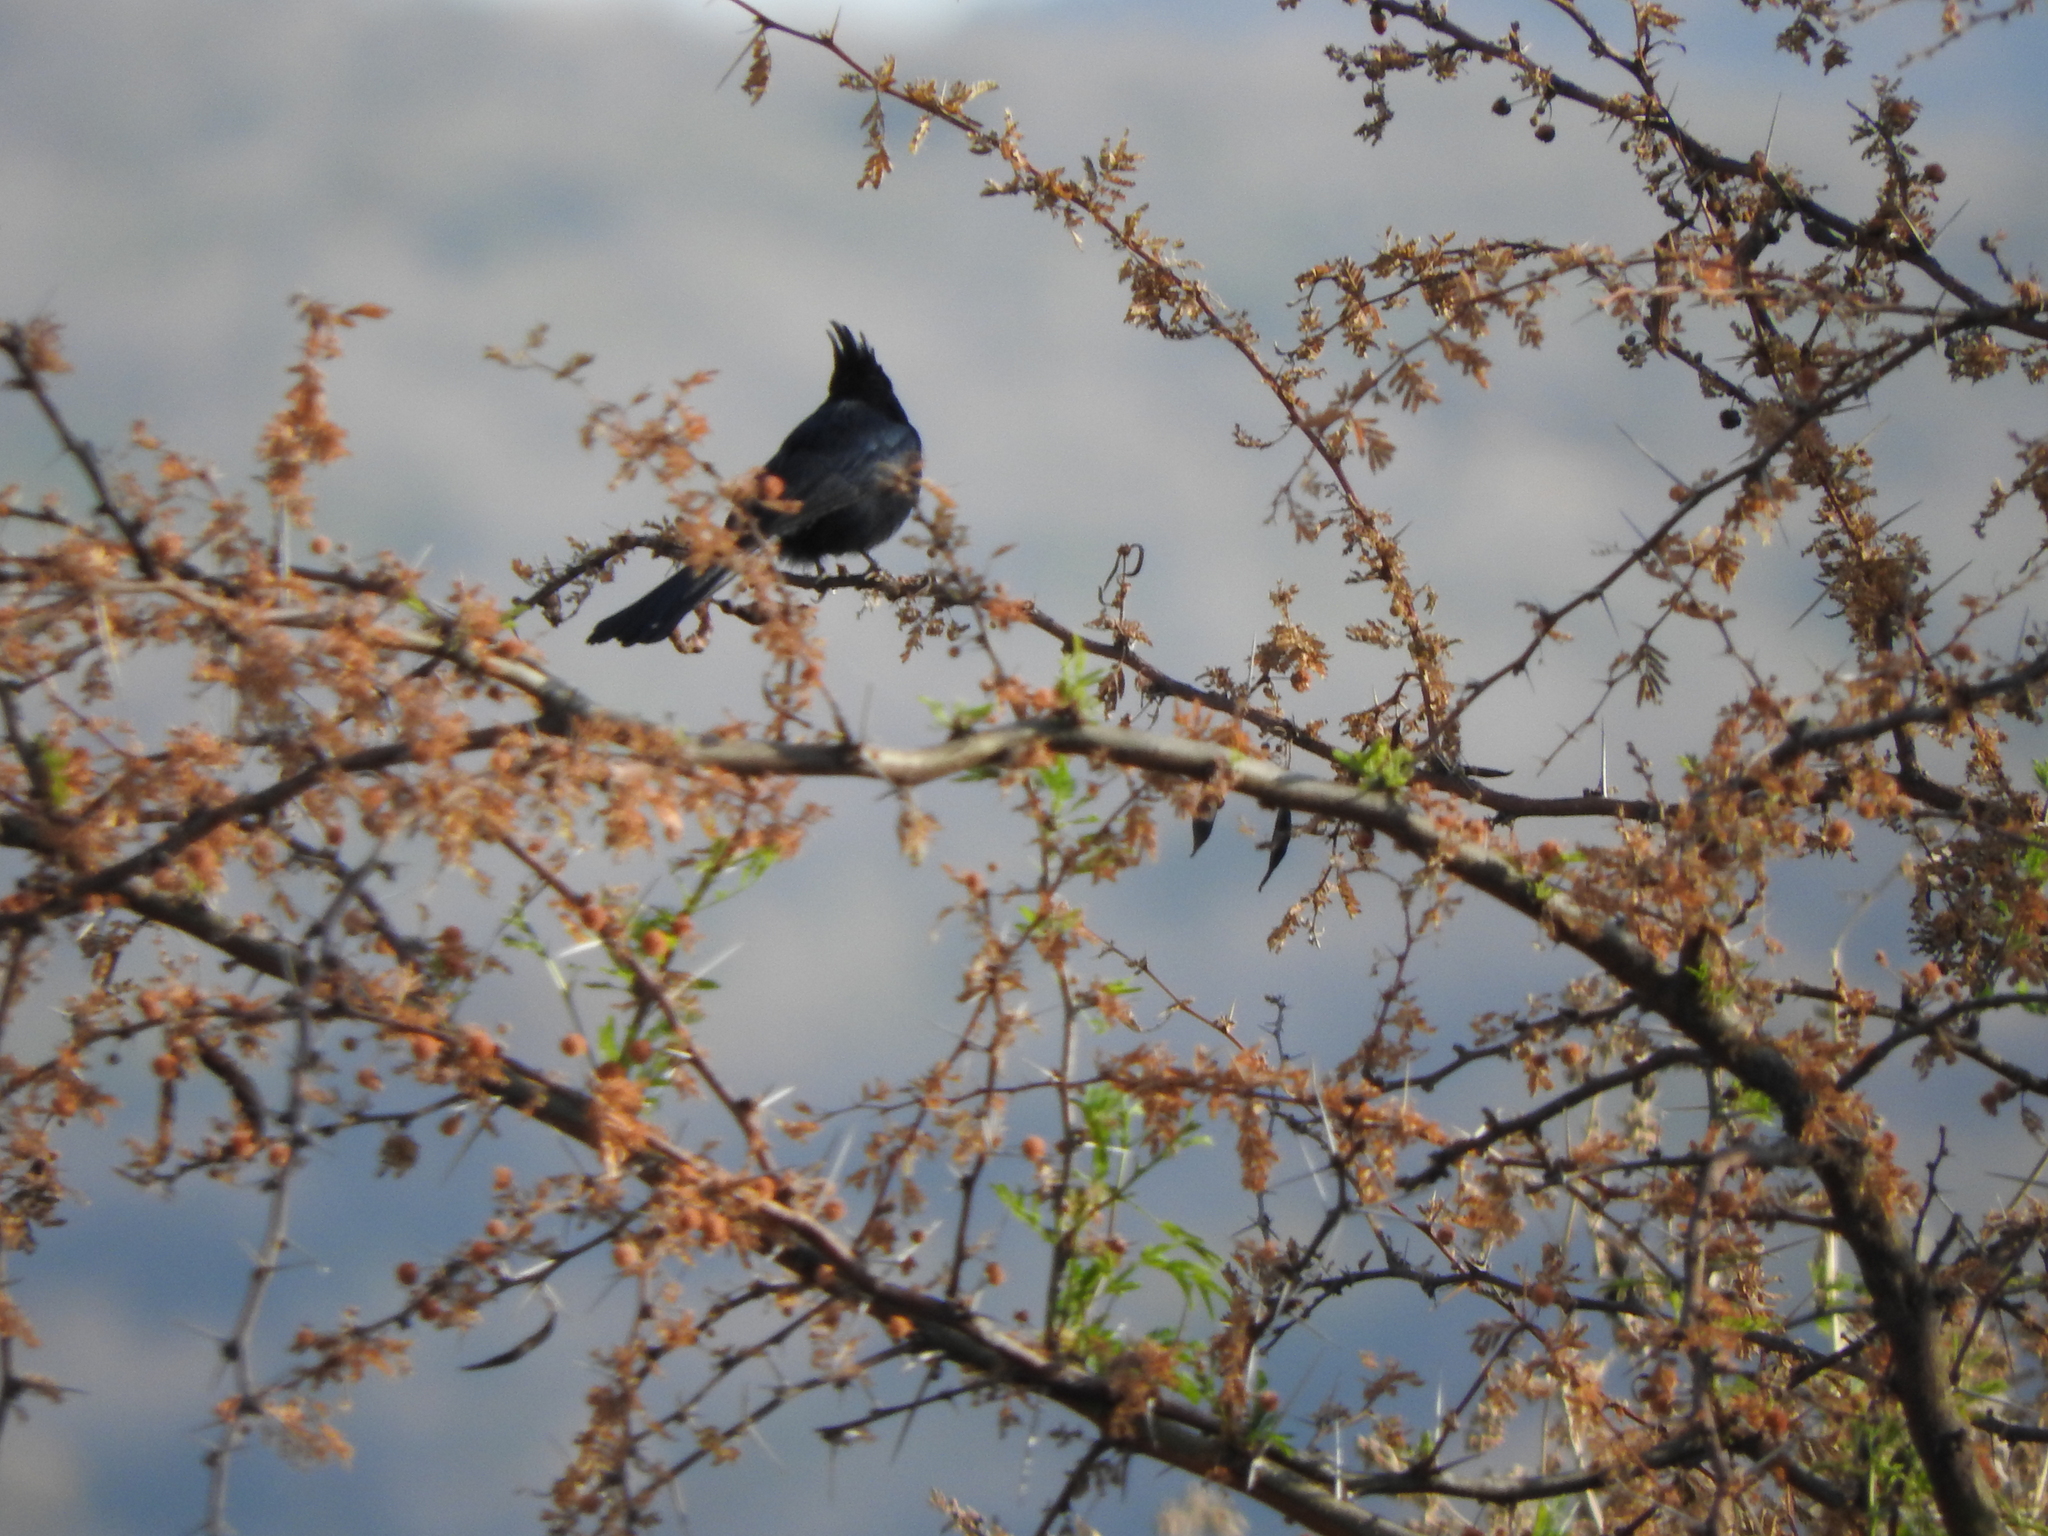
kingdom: Animalia
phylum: Chordata
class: Aves
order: Passeriformes
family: Ptilogonatidae
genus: Phainopepla
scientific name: Phainopepla nitens
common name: Phainopepla
